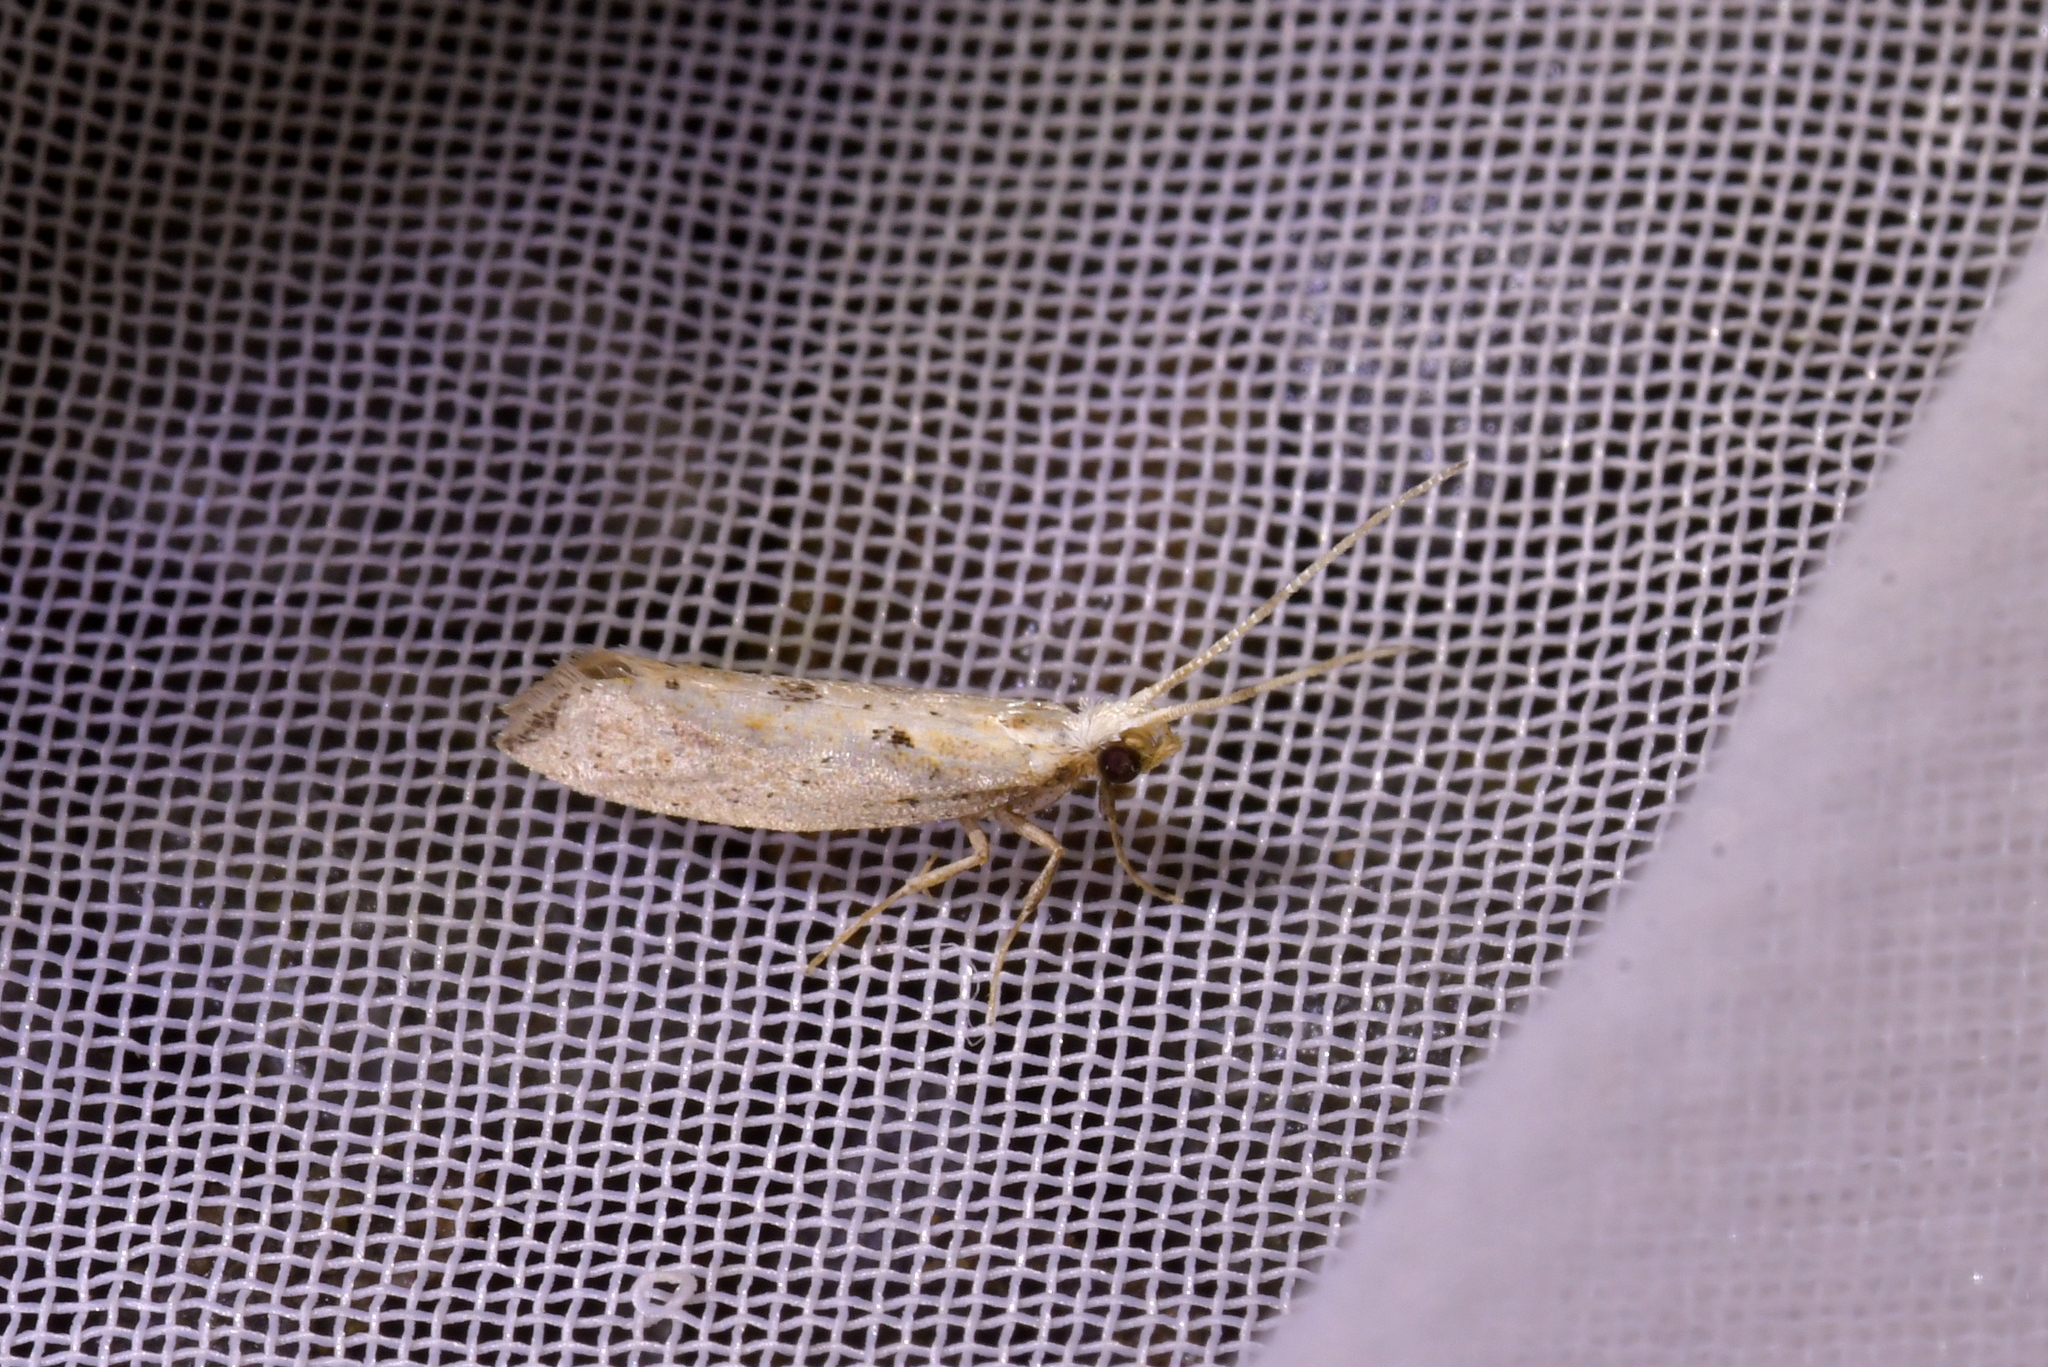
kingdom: Animalia
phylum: Arthropoda
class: Insecta
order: Lepidoptera
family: Plutellidae
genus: Leuroperna
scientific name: Leuroperna sera
